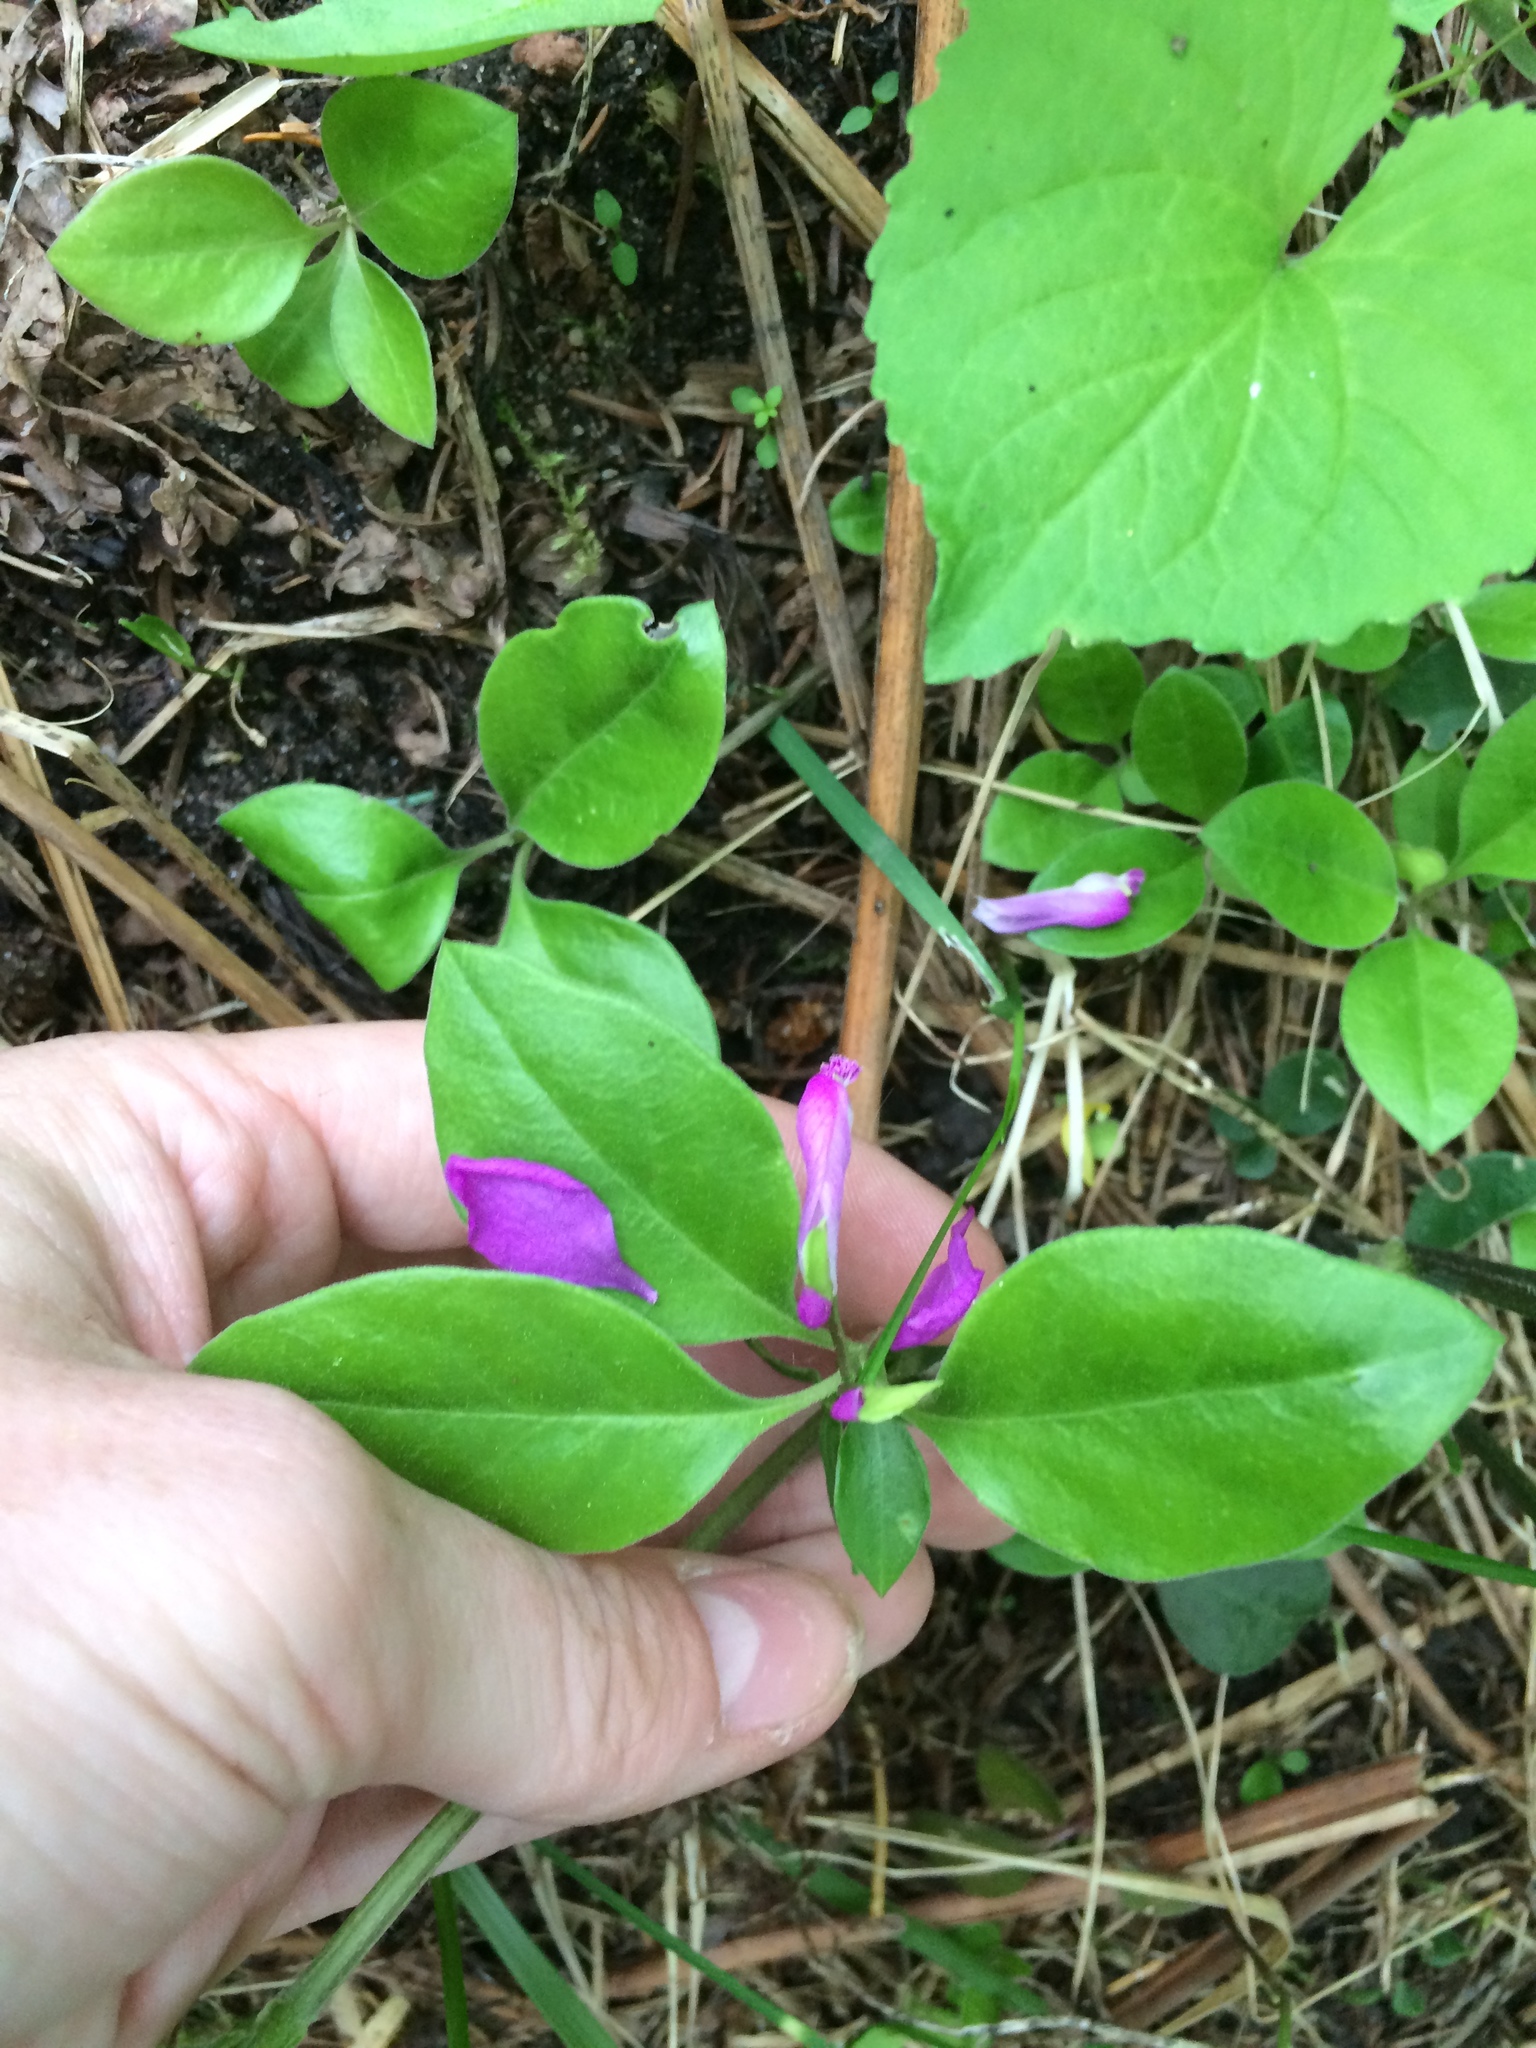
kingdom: Plantae
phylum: Tracheophyta
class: Magnoliopsida
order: Fabales
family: Polygalaceae
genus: Polygaloides
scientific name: Polygaloides paucifolia
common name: Bird-on-the-wing
